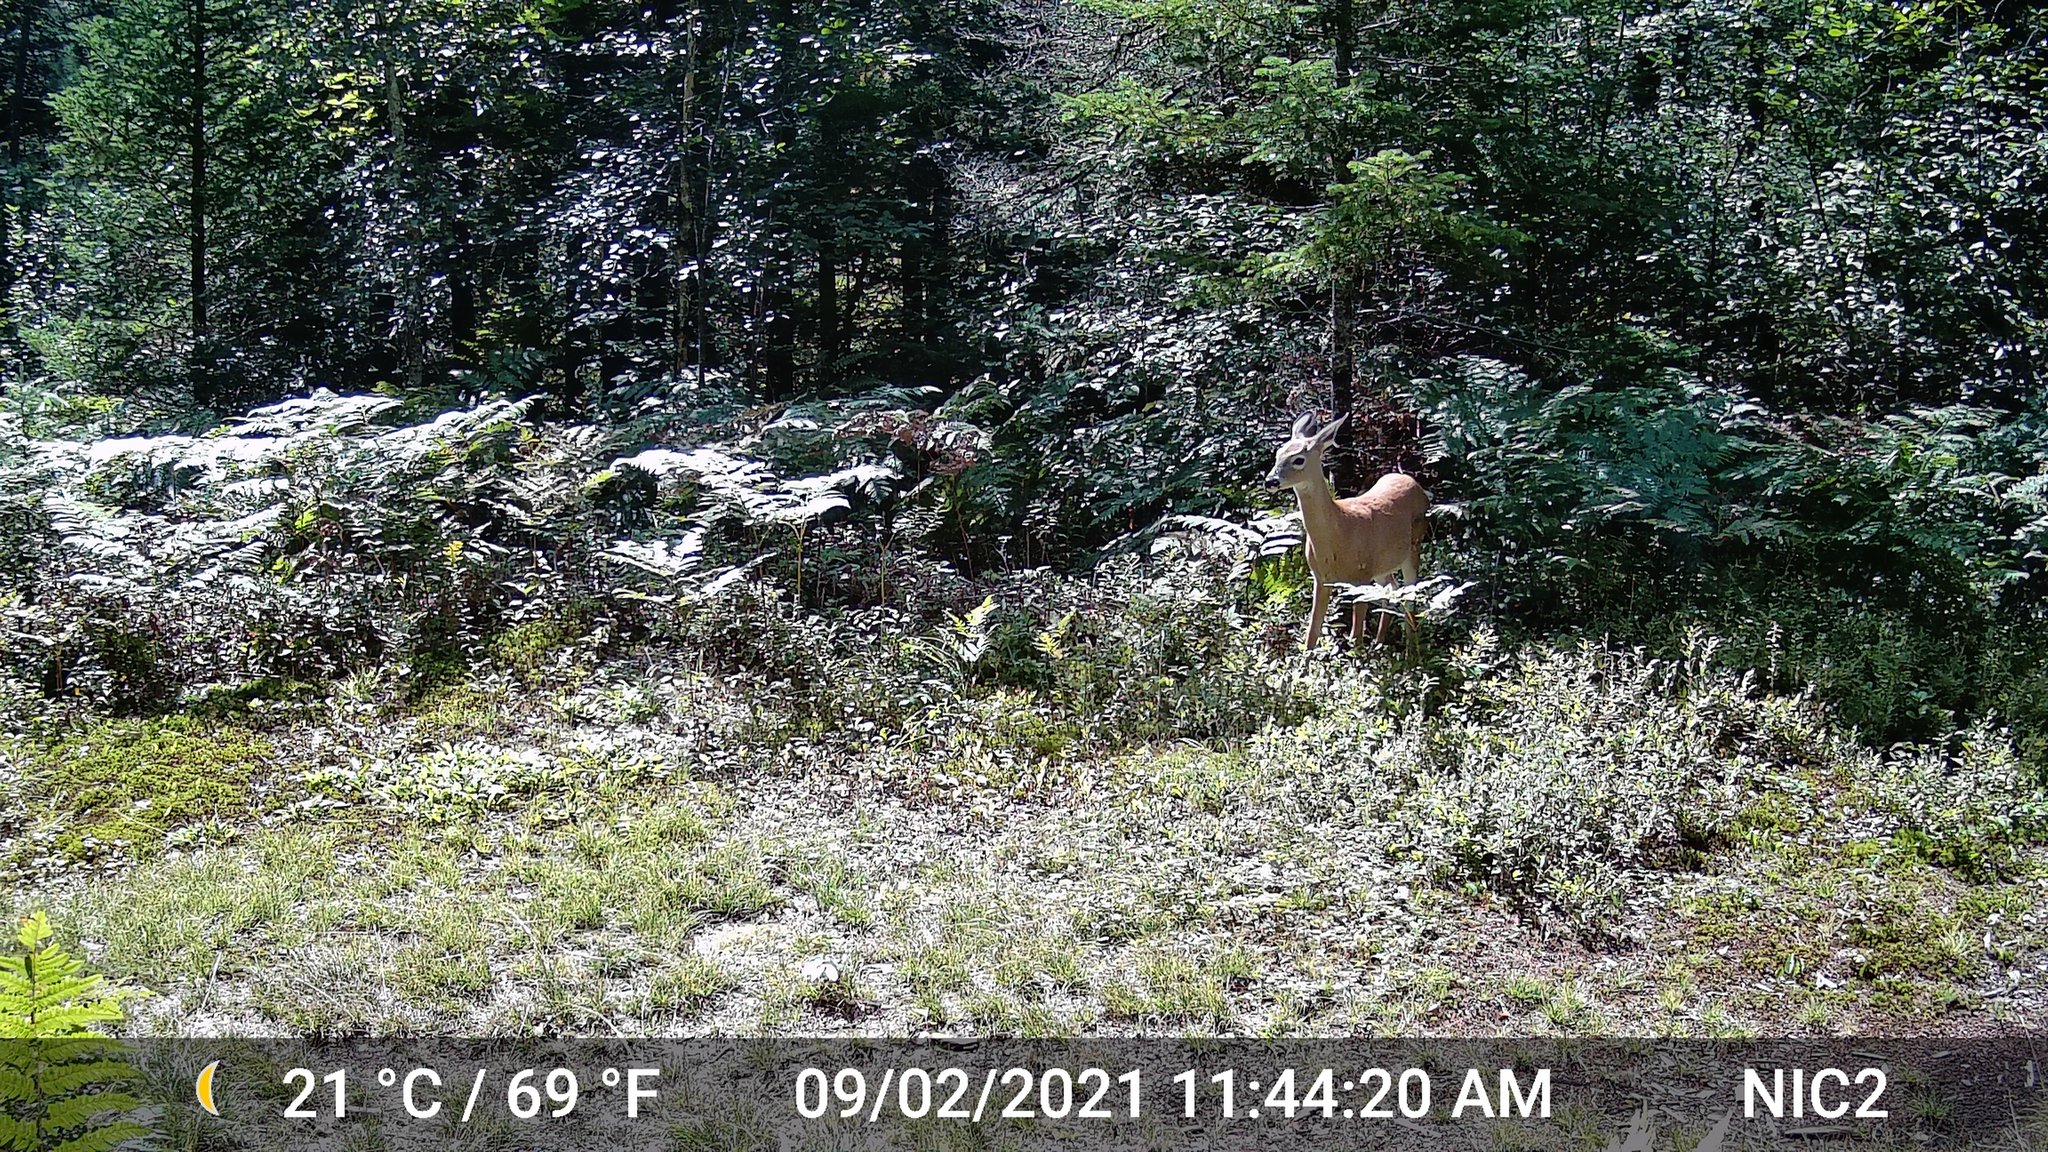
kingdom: Animalia
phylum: Chordata
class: Mammalia
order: Artiodactyla
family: Cervidae
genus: Odocoileus
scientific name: Odocoileus virginianus
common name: White-tailed deer
